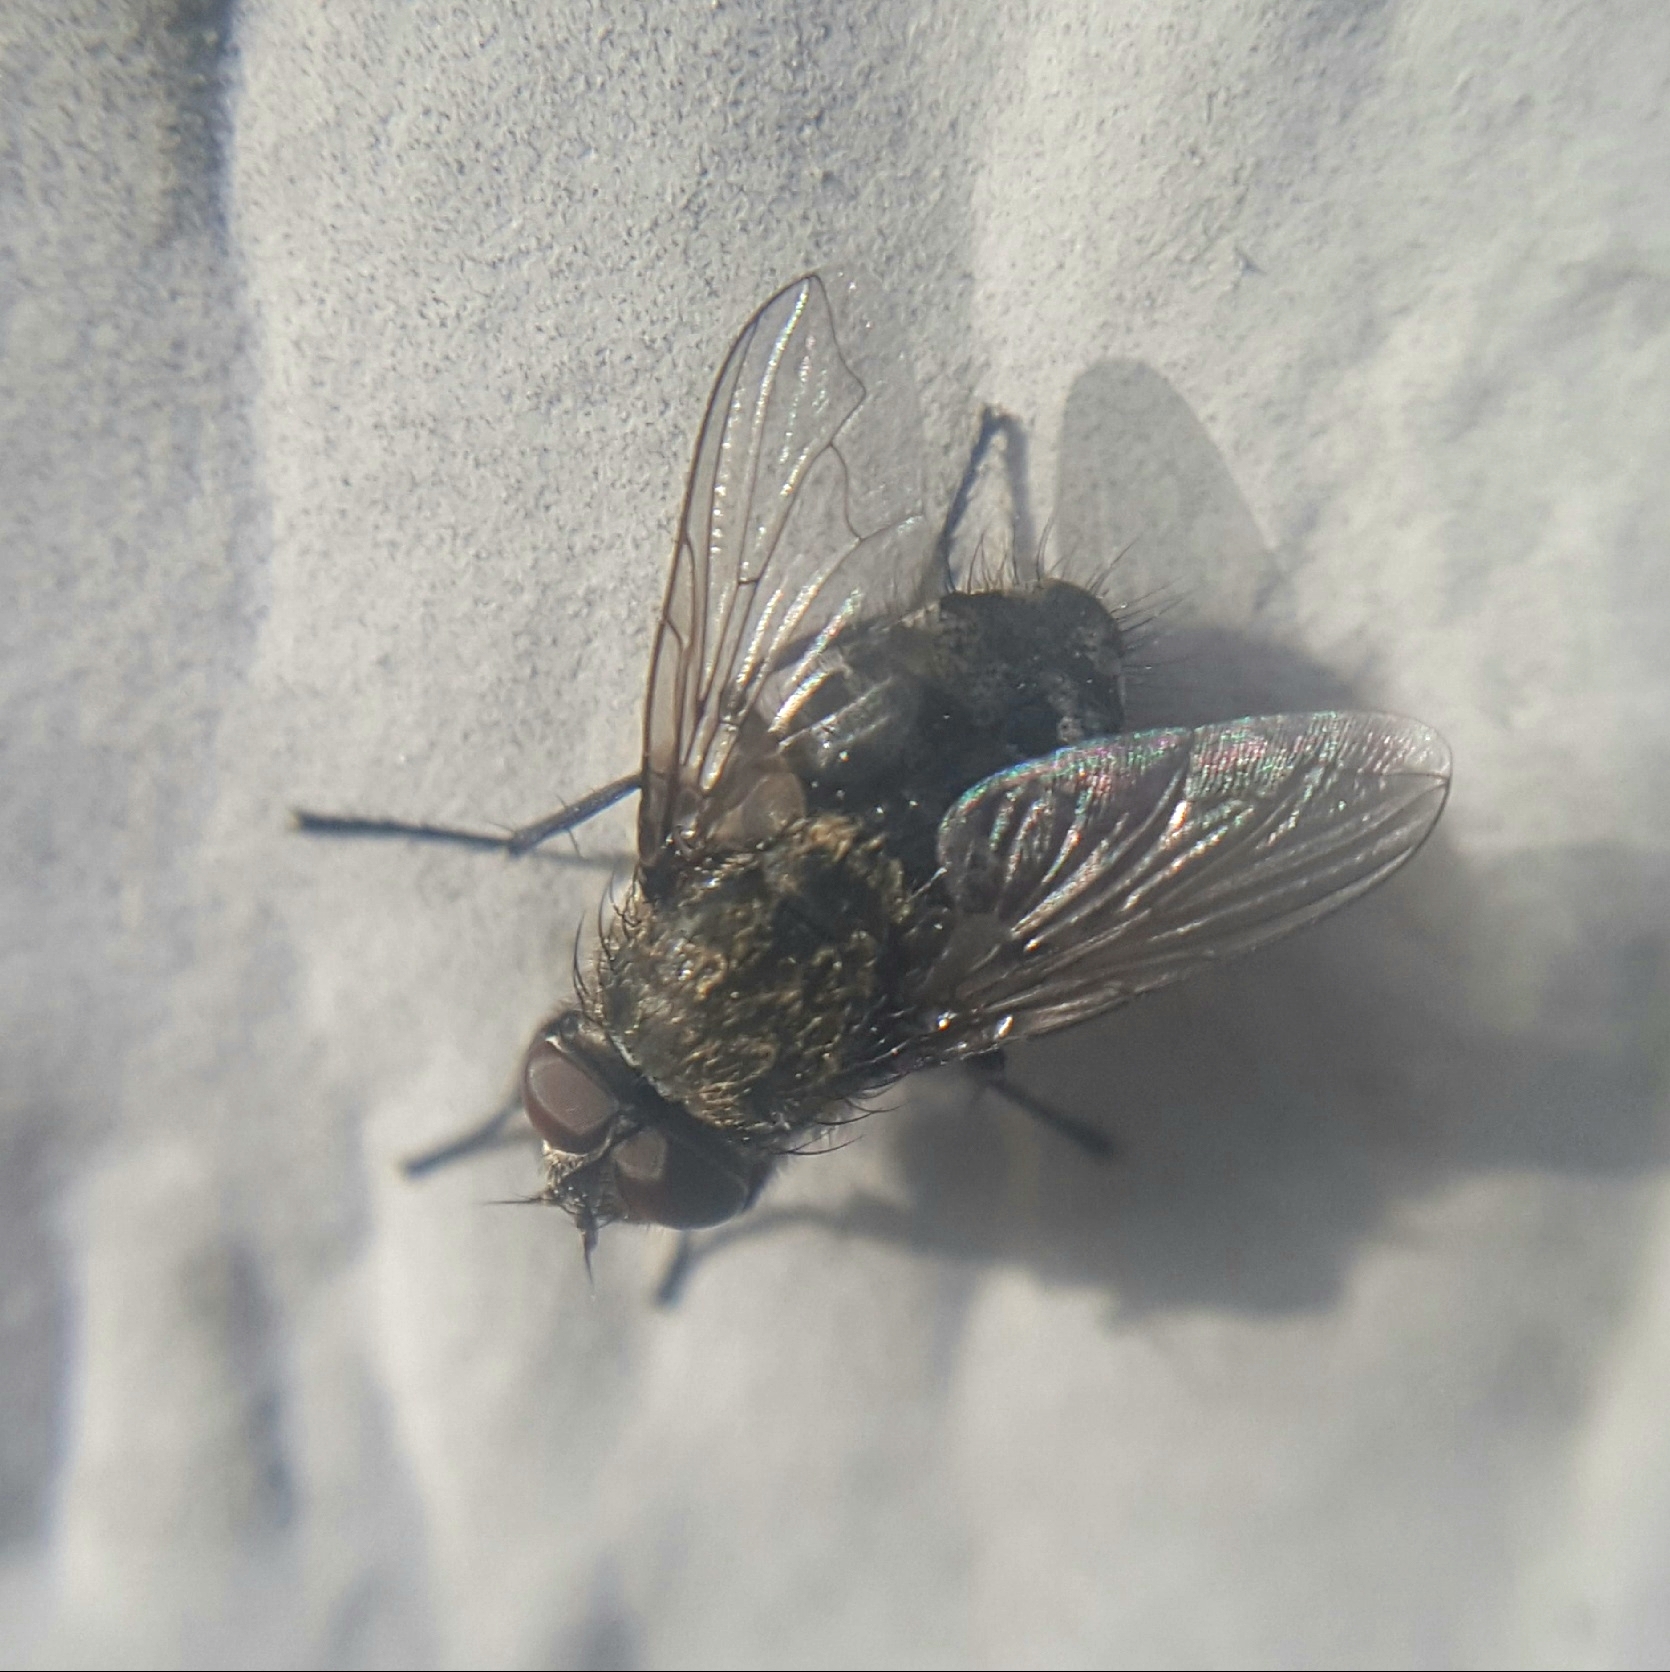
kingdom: Animalia
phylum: Arthropoda
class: Insecta
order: Diptera
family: Polleniidae
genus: Pollenia
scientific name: Pollenia
